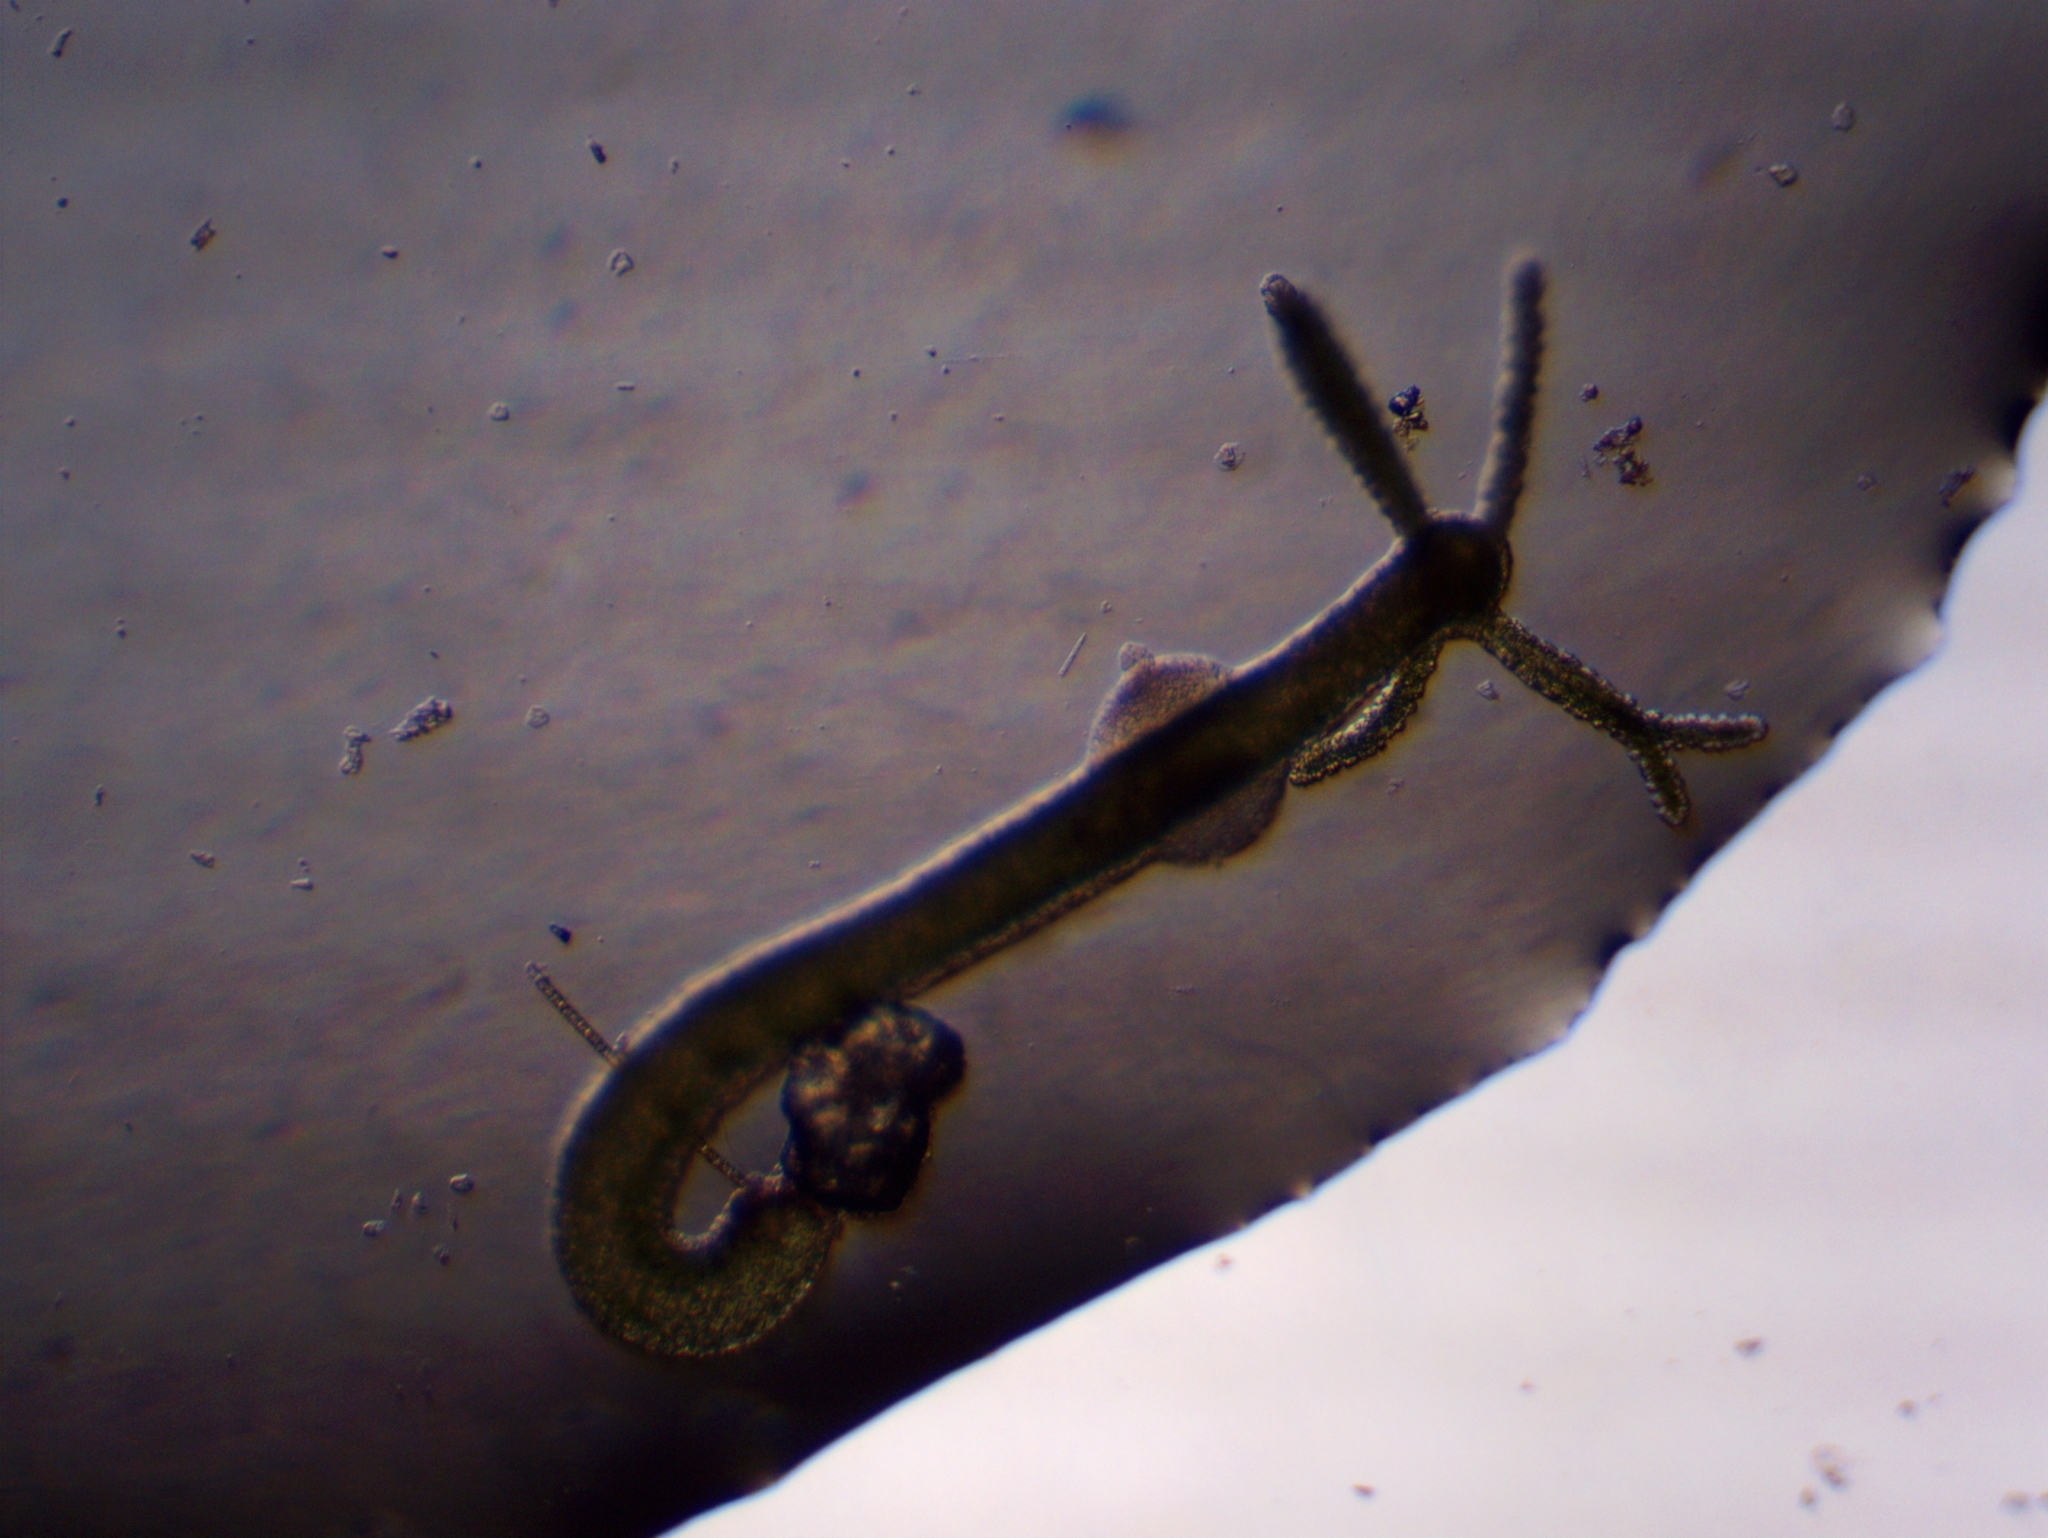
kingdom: Animalia
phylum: Cnidaria
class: Hydrozoa
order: Anthoathecata
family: Hydridae
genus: Hydra
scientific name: Hydra viridissima
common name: Green hydra
